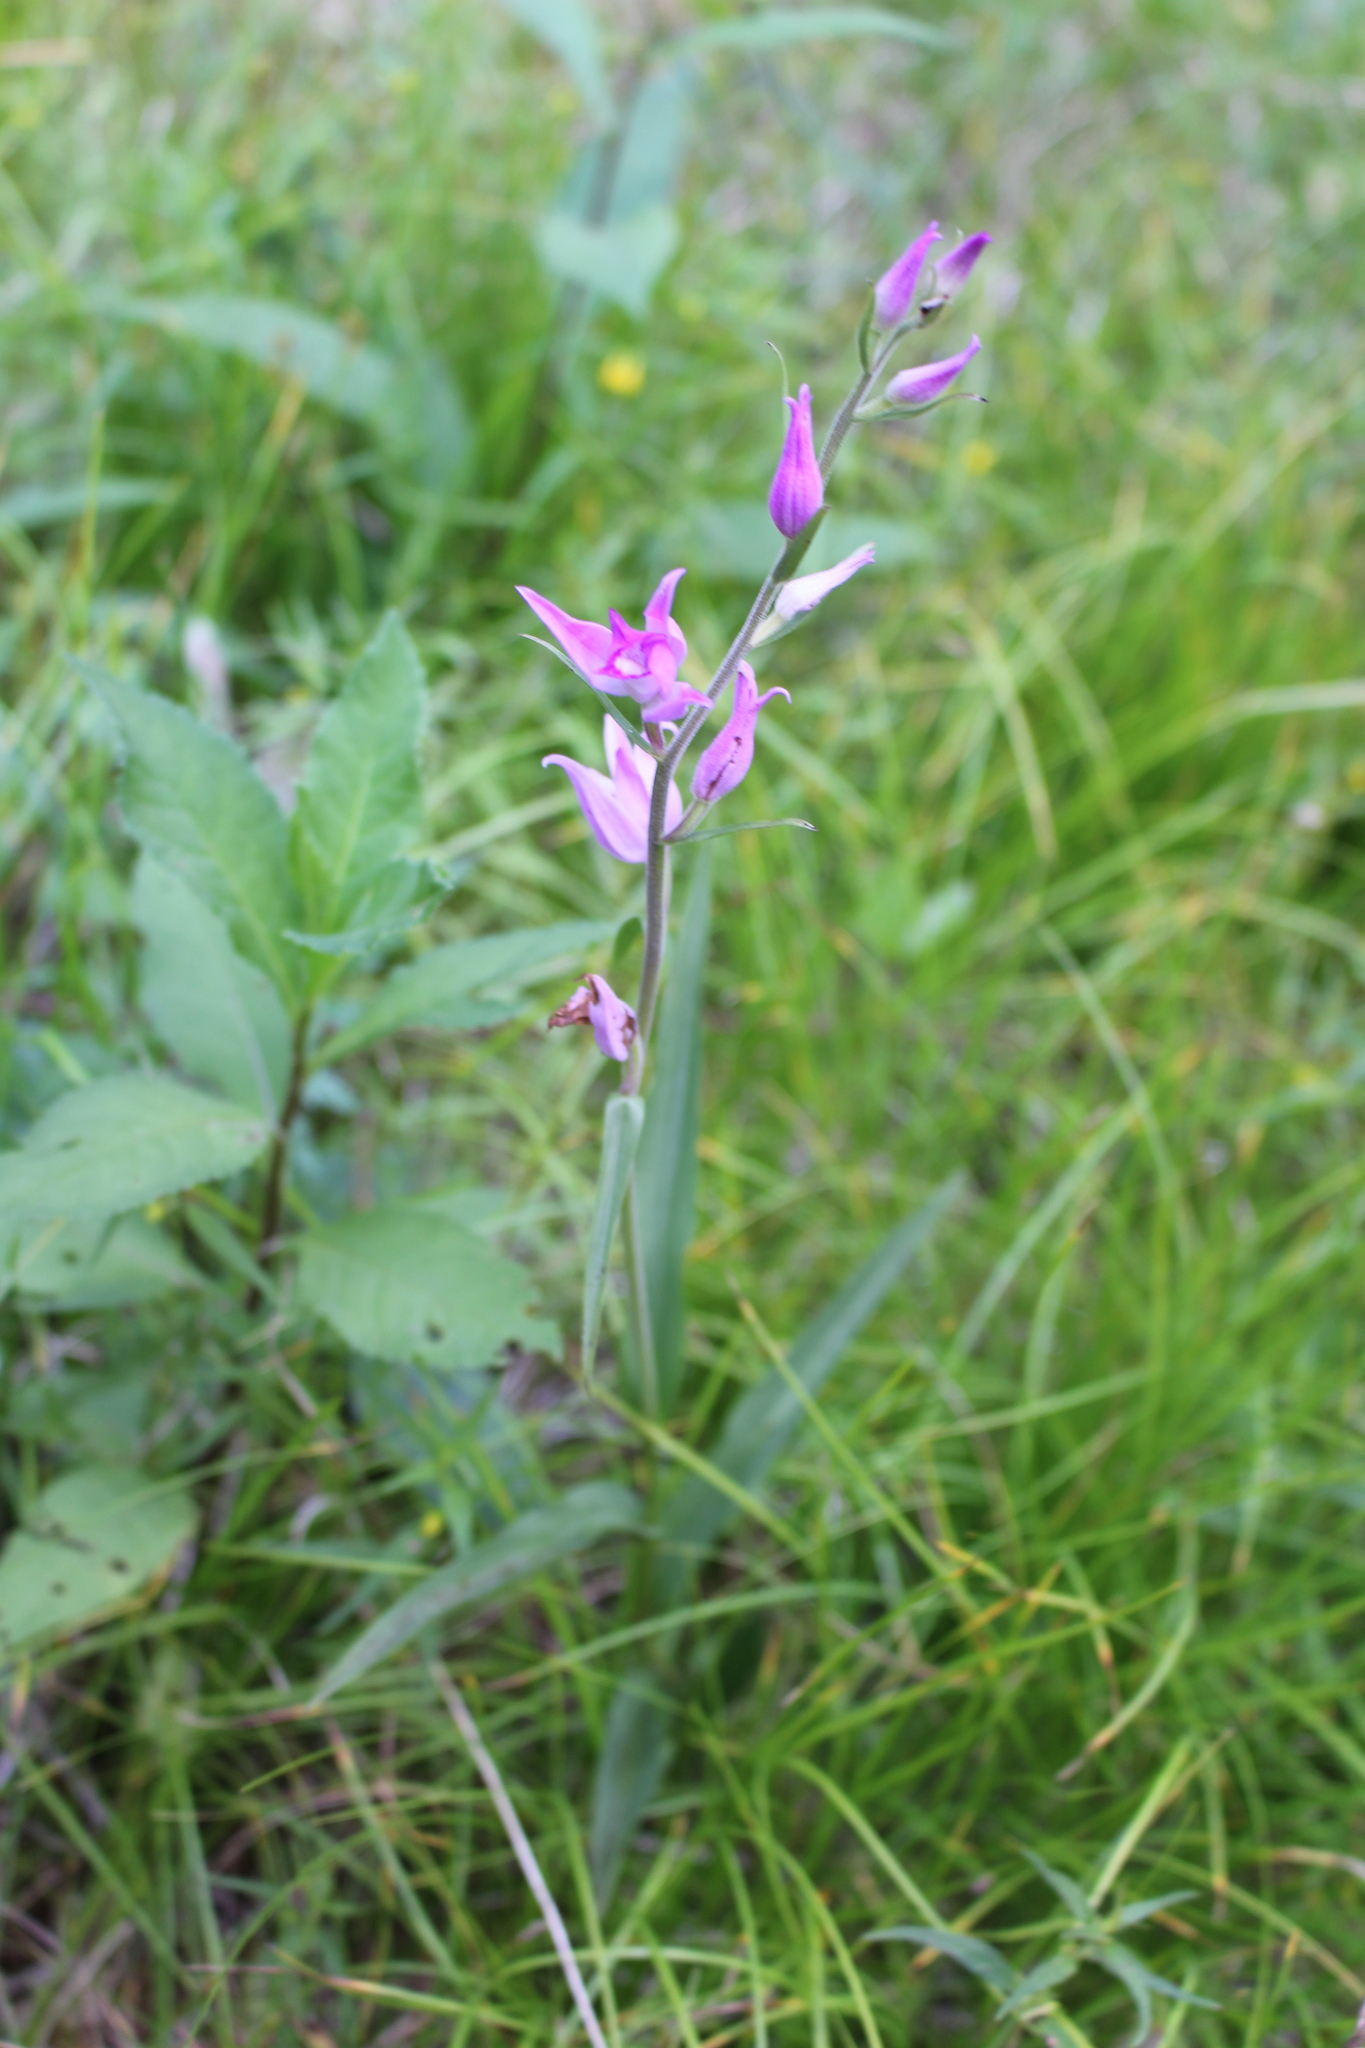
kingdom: Plantae
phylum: Tracheophyta
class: Liliopsida
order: Asparagales
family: Orchidaceae
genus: Cephalanthera
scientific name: Cephalanthera rubra
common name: Red helleborine
